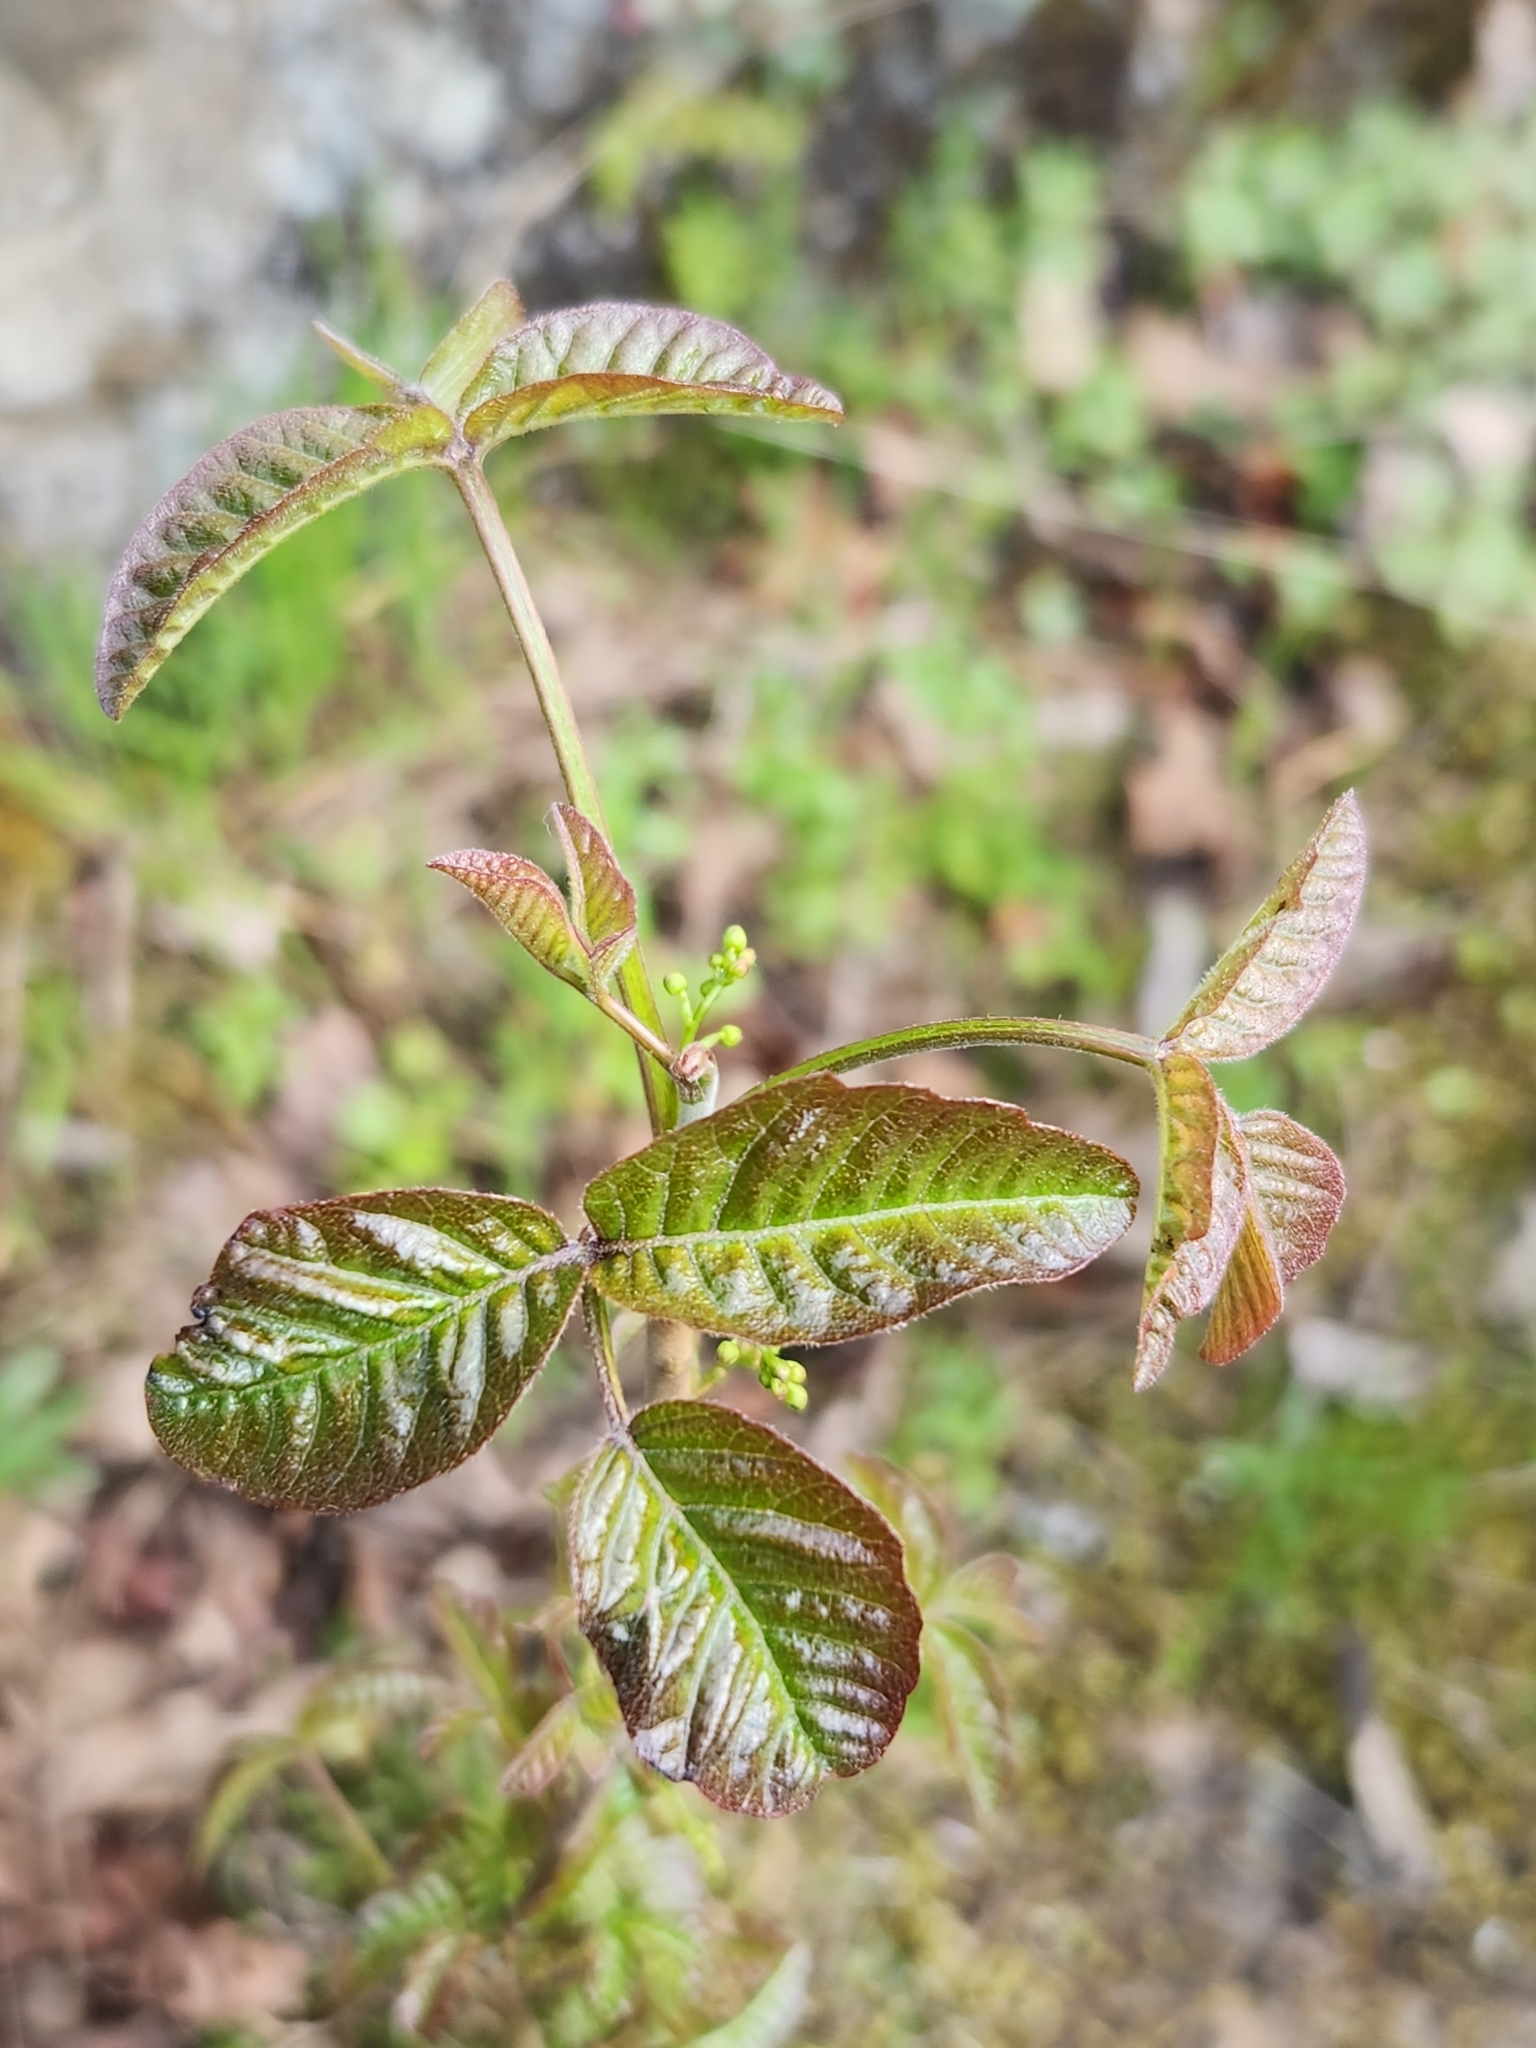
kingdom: Plantae
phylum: Tracheophyta
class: Magnoliopsida
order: Sapindales
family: Anacardiaceae
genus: Toxicodendron
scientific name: Toxicodendron diversilobum
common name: Pacific poison-oak
